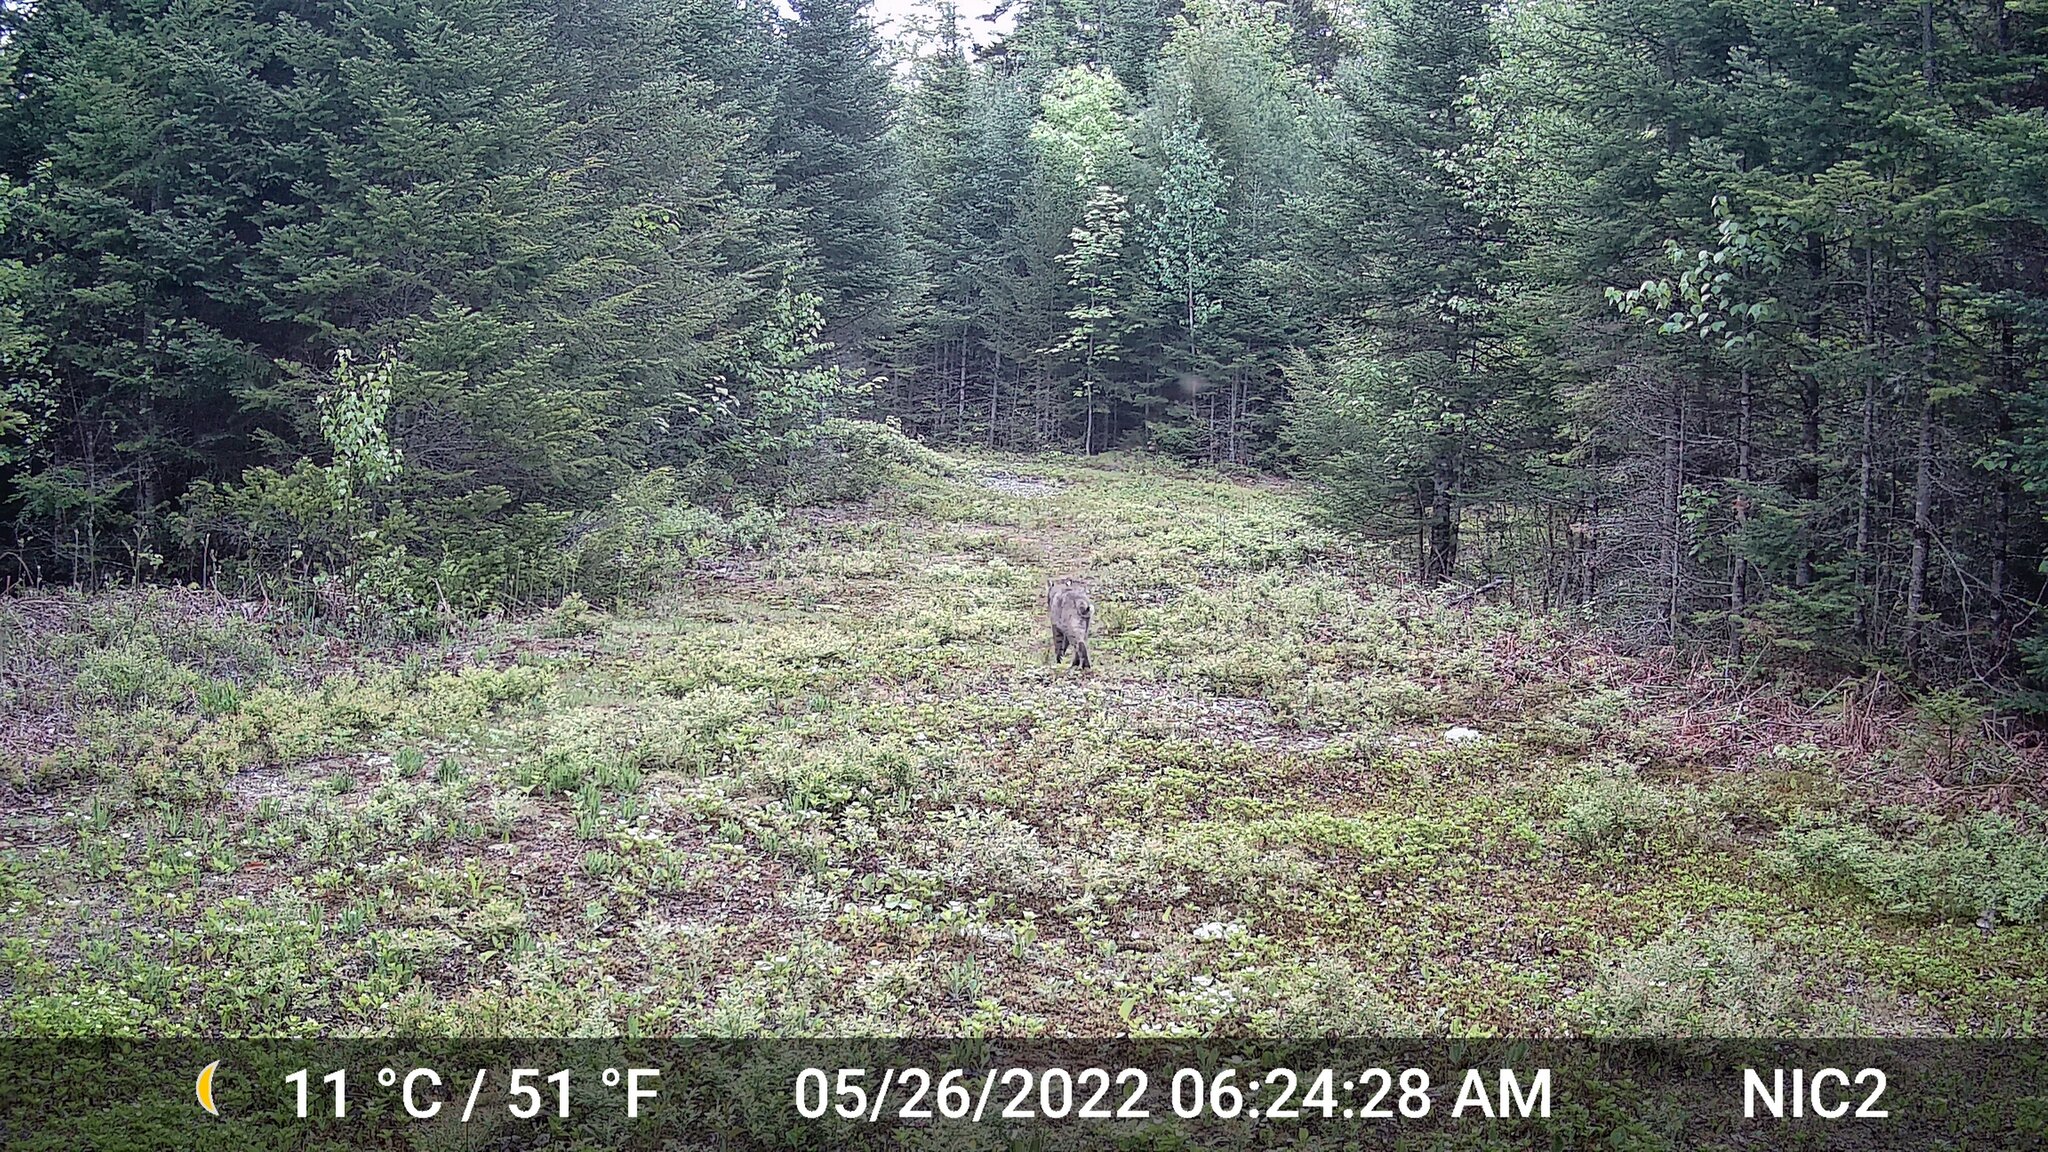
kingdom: Animalia
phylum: Chordata
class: Mammalia
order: Carnivora
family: Felidae
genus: Lynx
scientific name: Lynx rufus
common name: Bobcat
